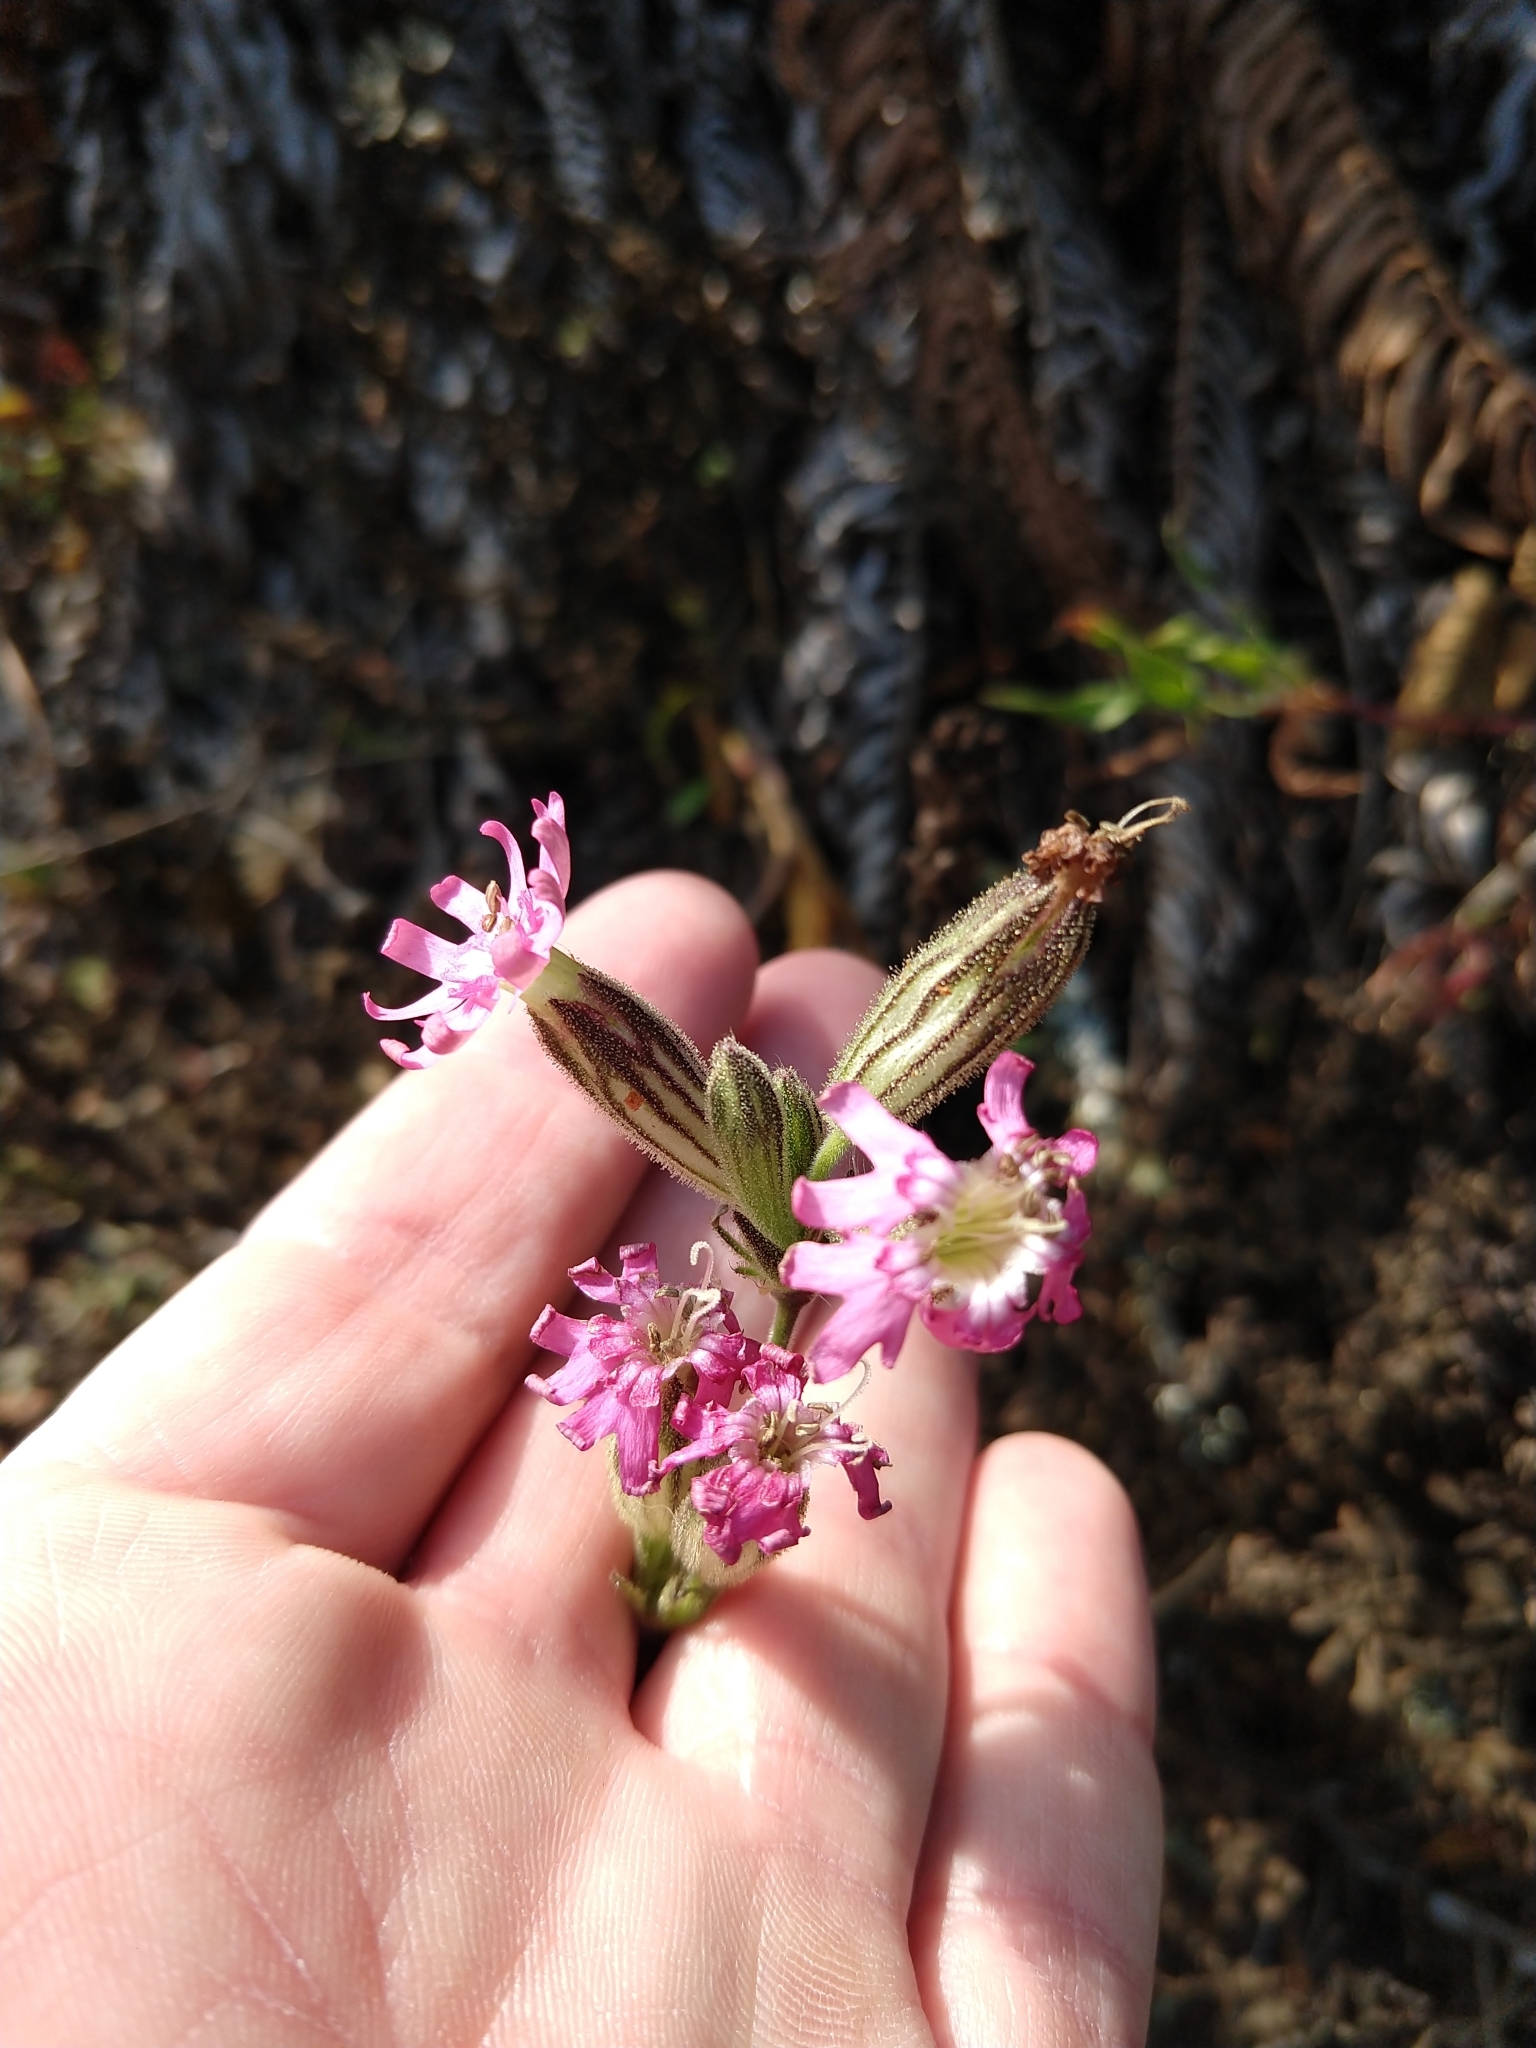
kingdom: Plantae
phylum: Tracheophyta
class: Magnoliopsida
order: Caryophyllales
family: Caryophyllaceae
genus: Silene
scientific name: Silene scouleri
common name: Scouler's campion
